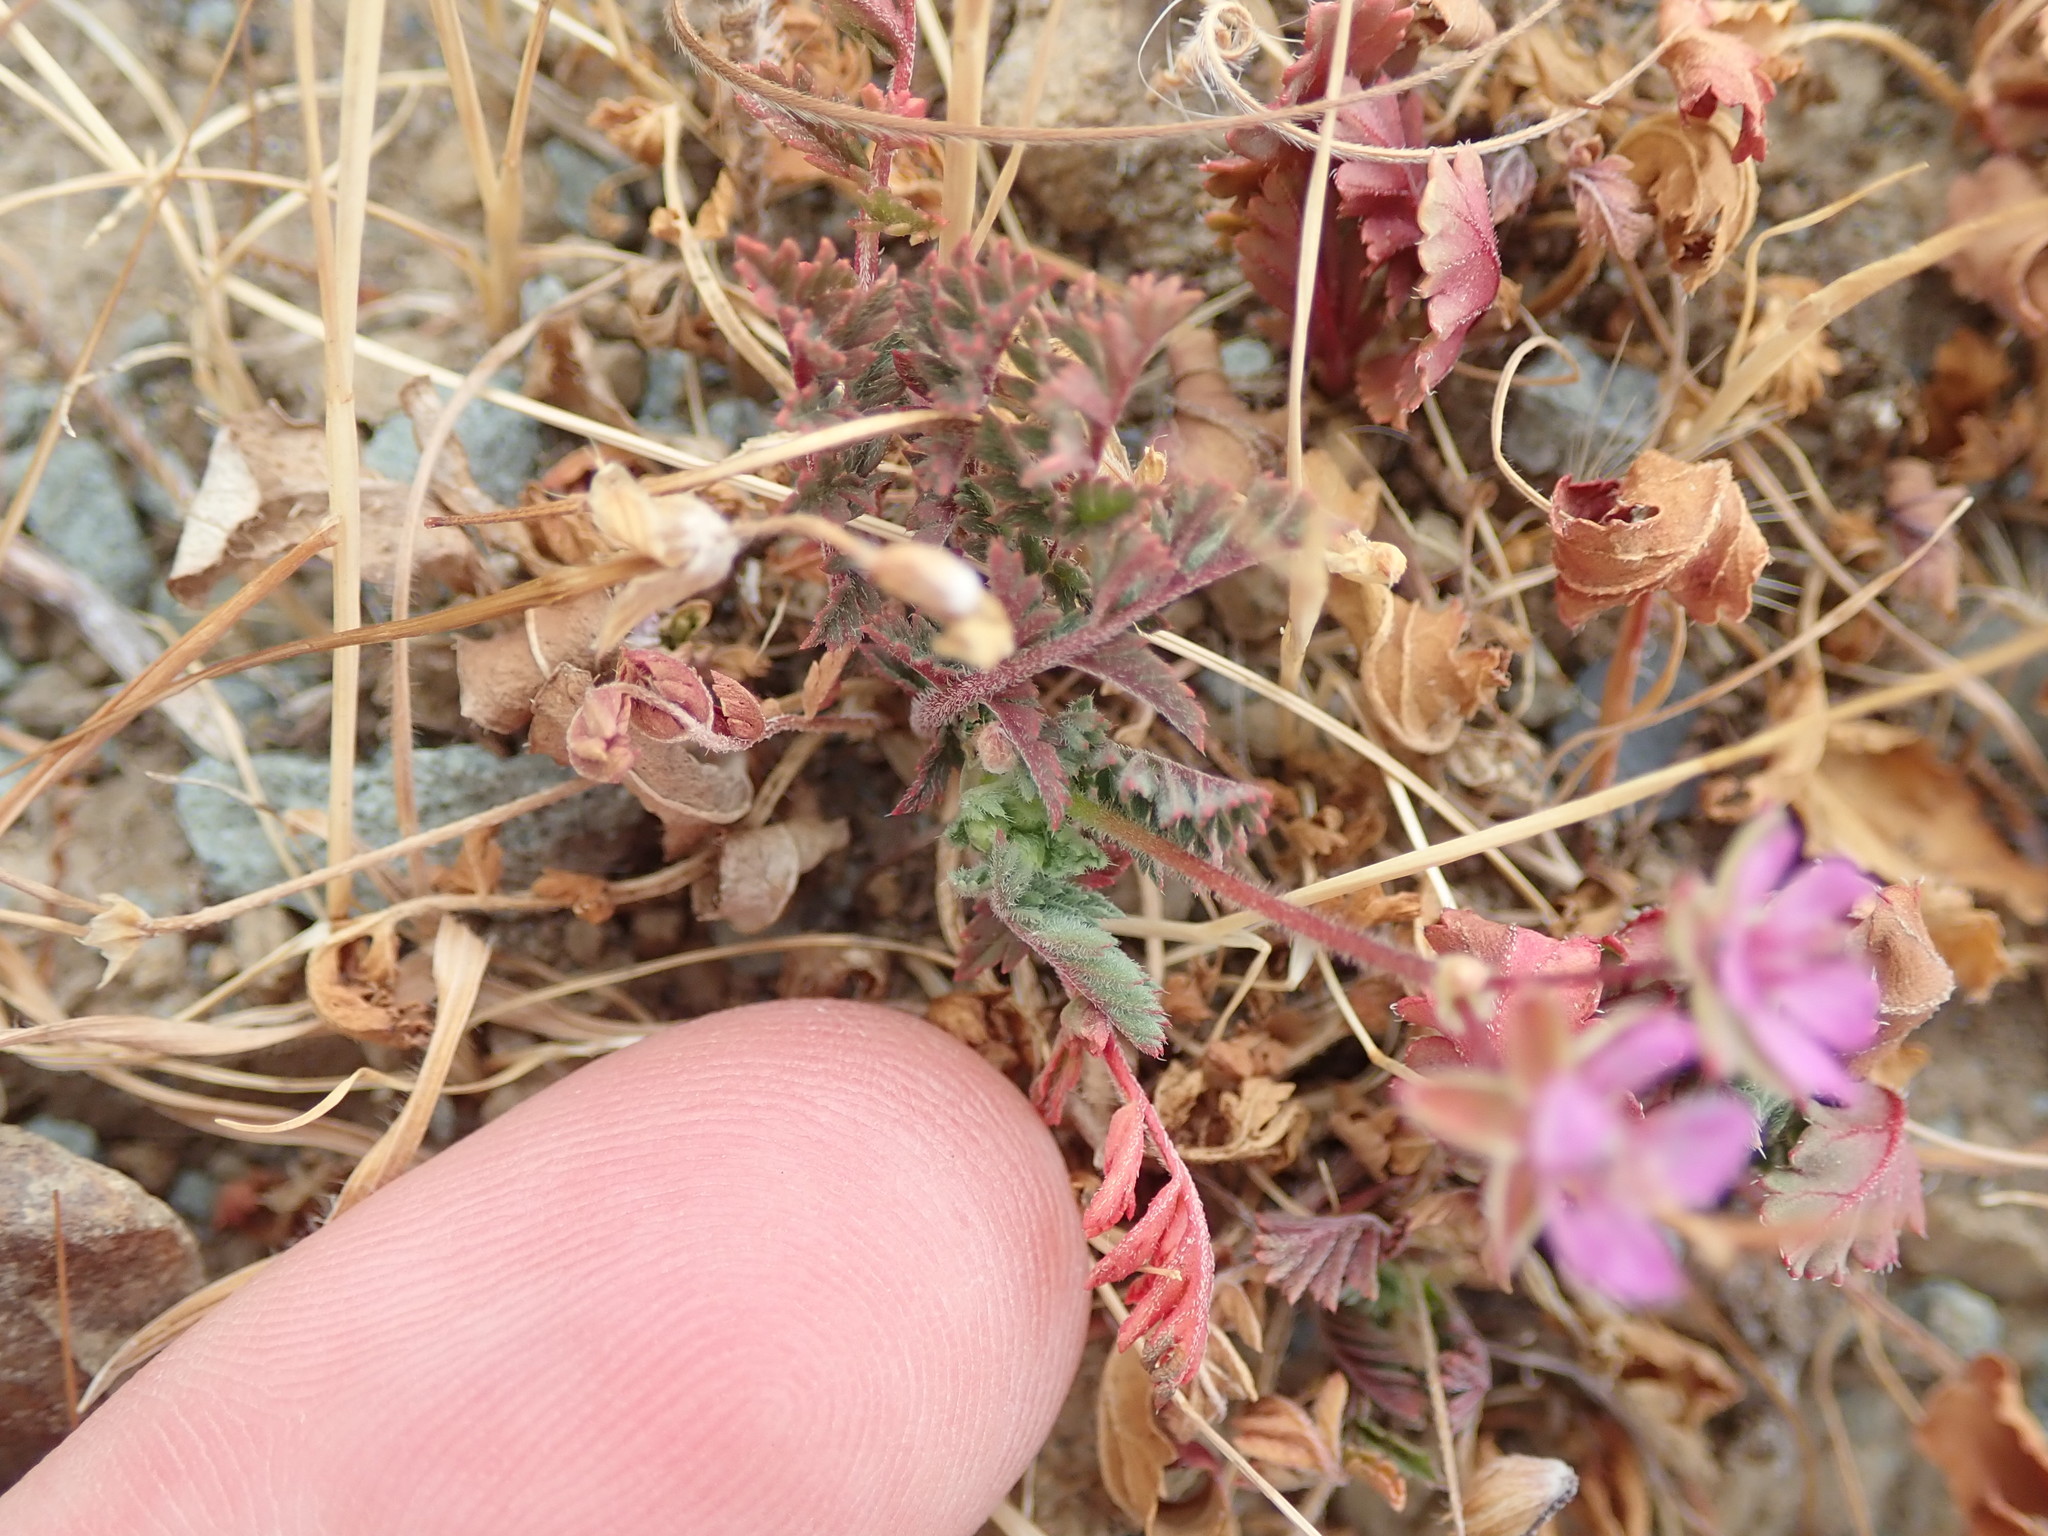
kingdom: Plantae
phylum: Tracheophyta
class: Magnoliopsida
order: Geraniales
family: Geraniaceae
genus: Erodium
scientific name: Erodium cicutarium
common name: Common stork's-bill
